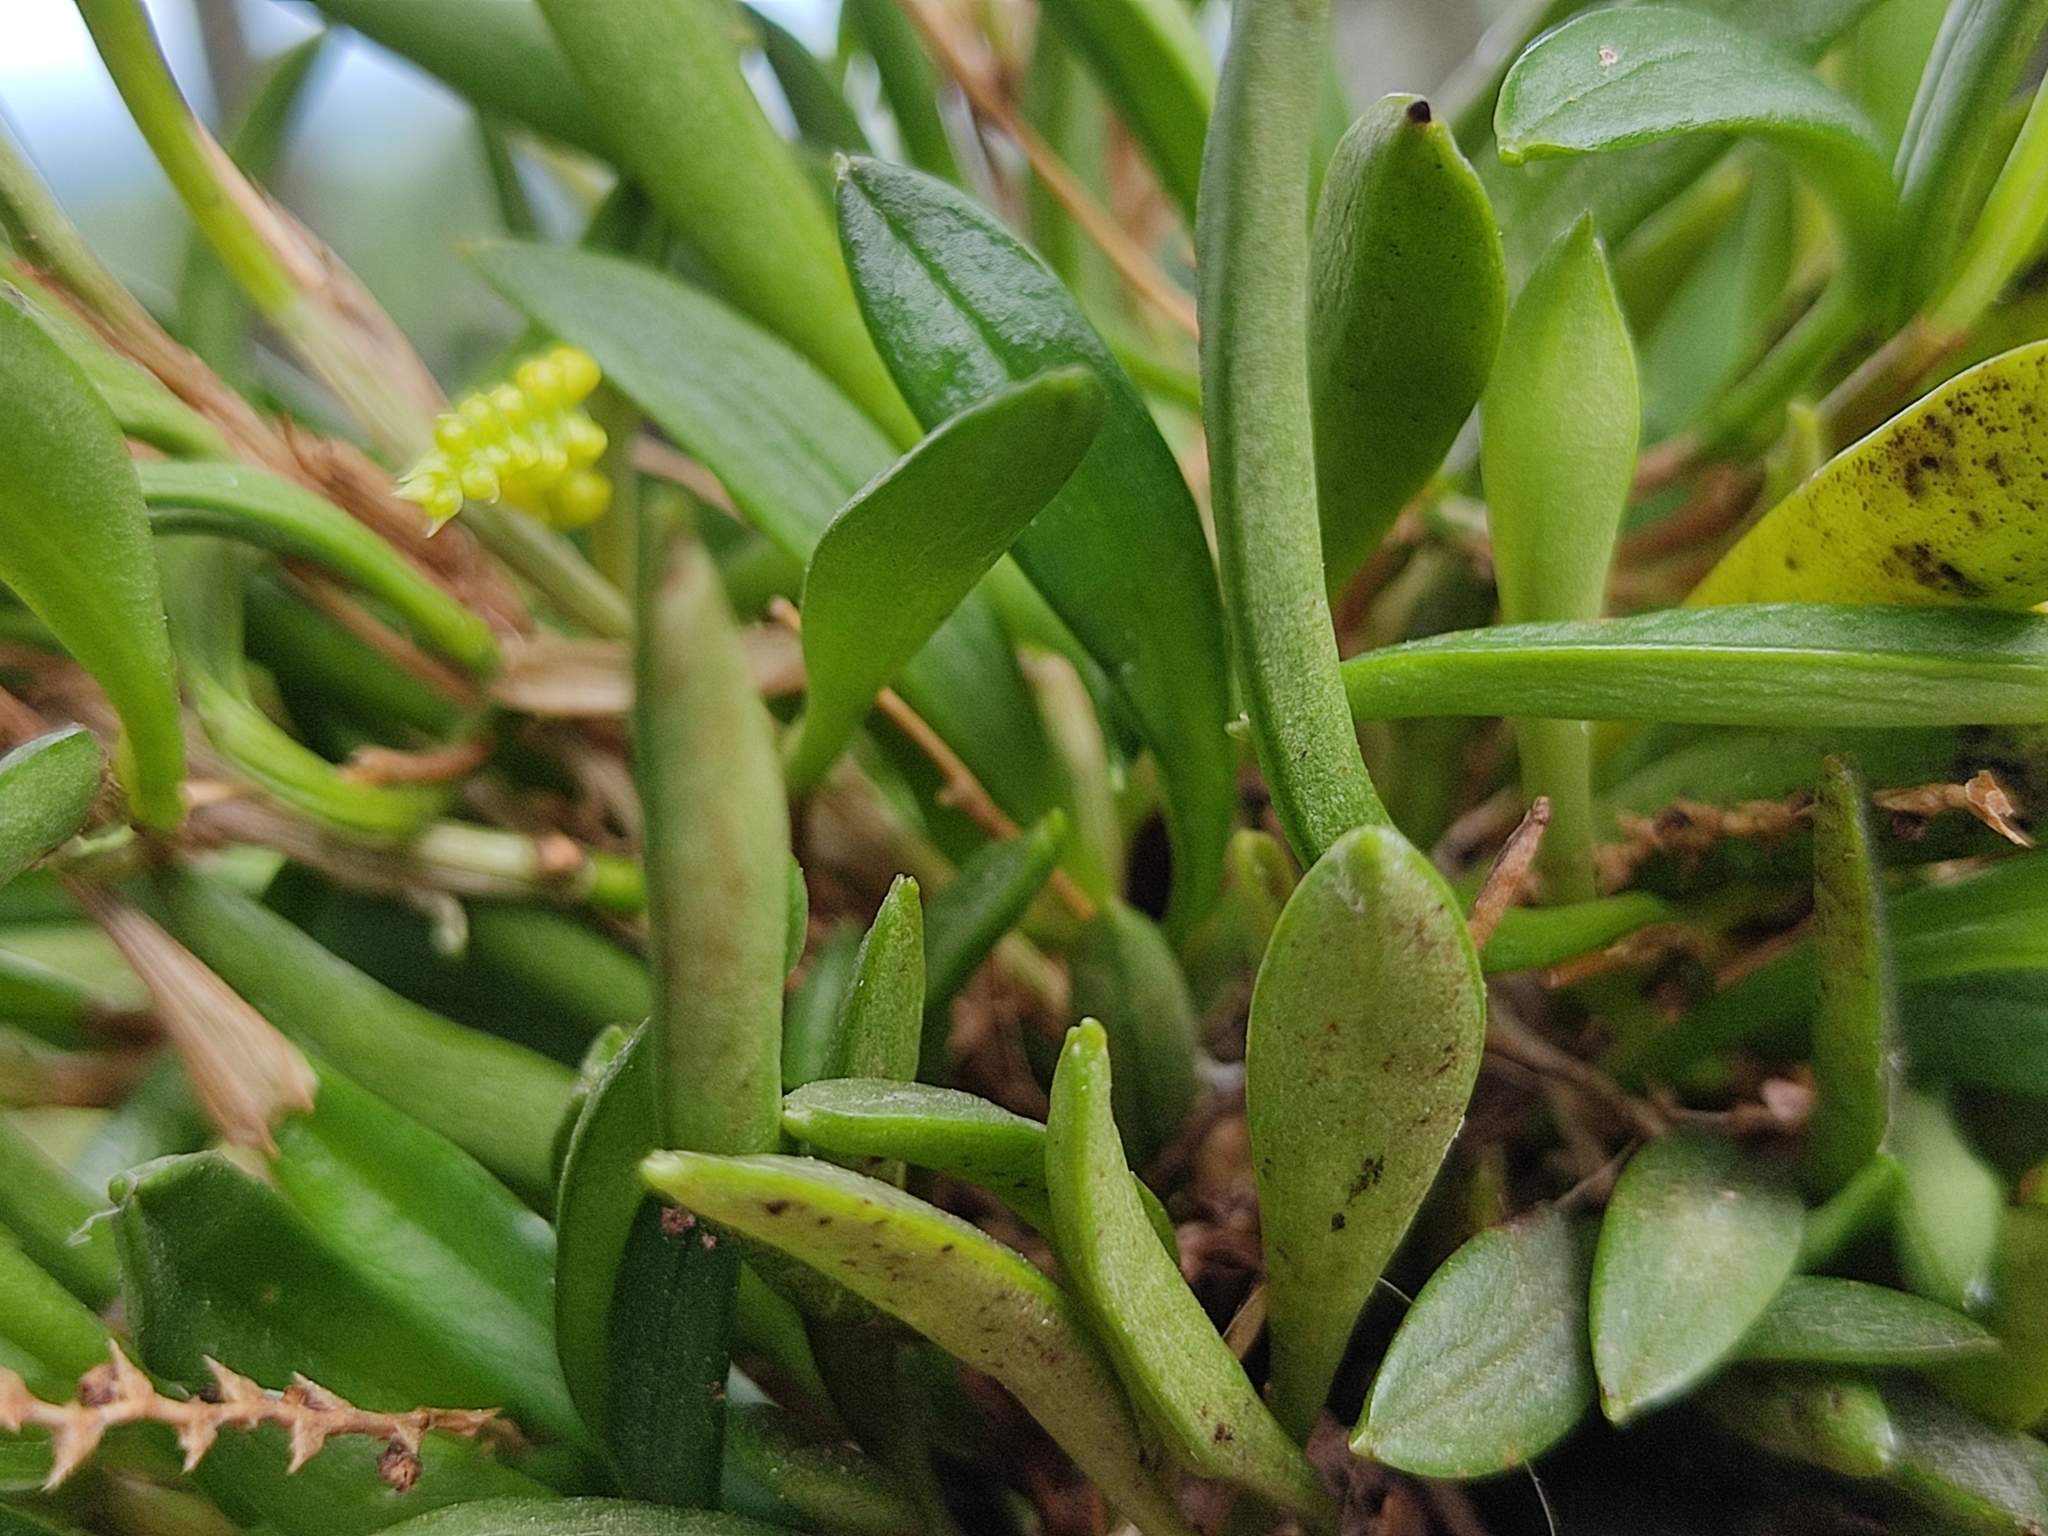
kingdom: Plantae
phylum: Tracheophyta
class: Liliopsida
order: Asparagales
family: Orchidaceae
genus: Stelis
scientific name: Stelis pusilla
